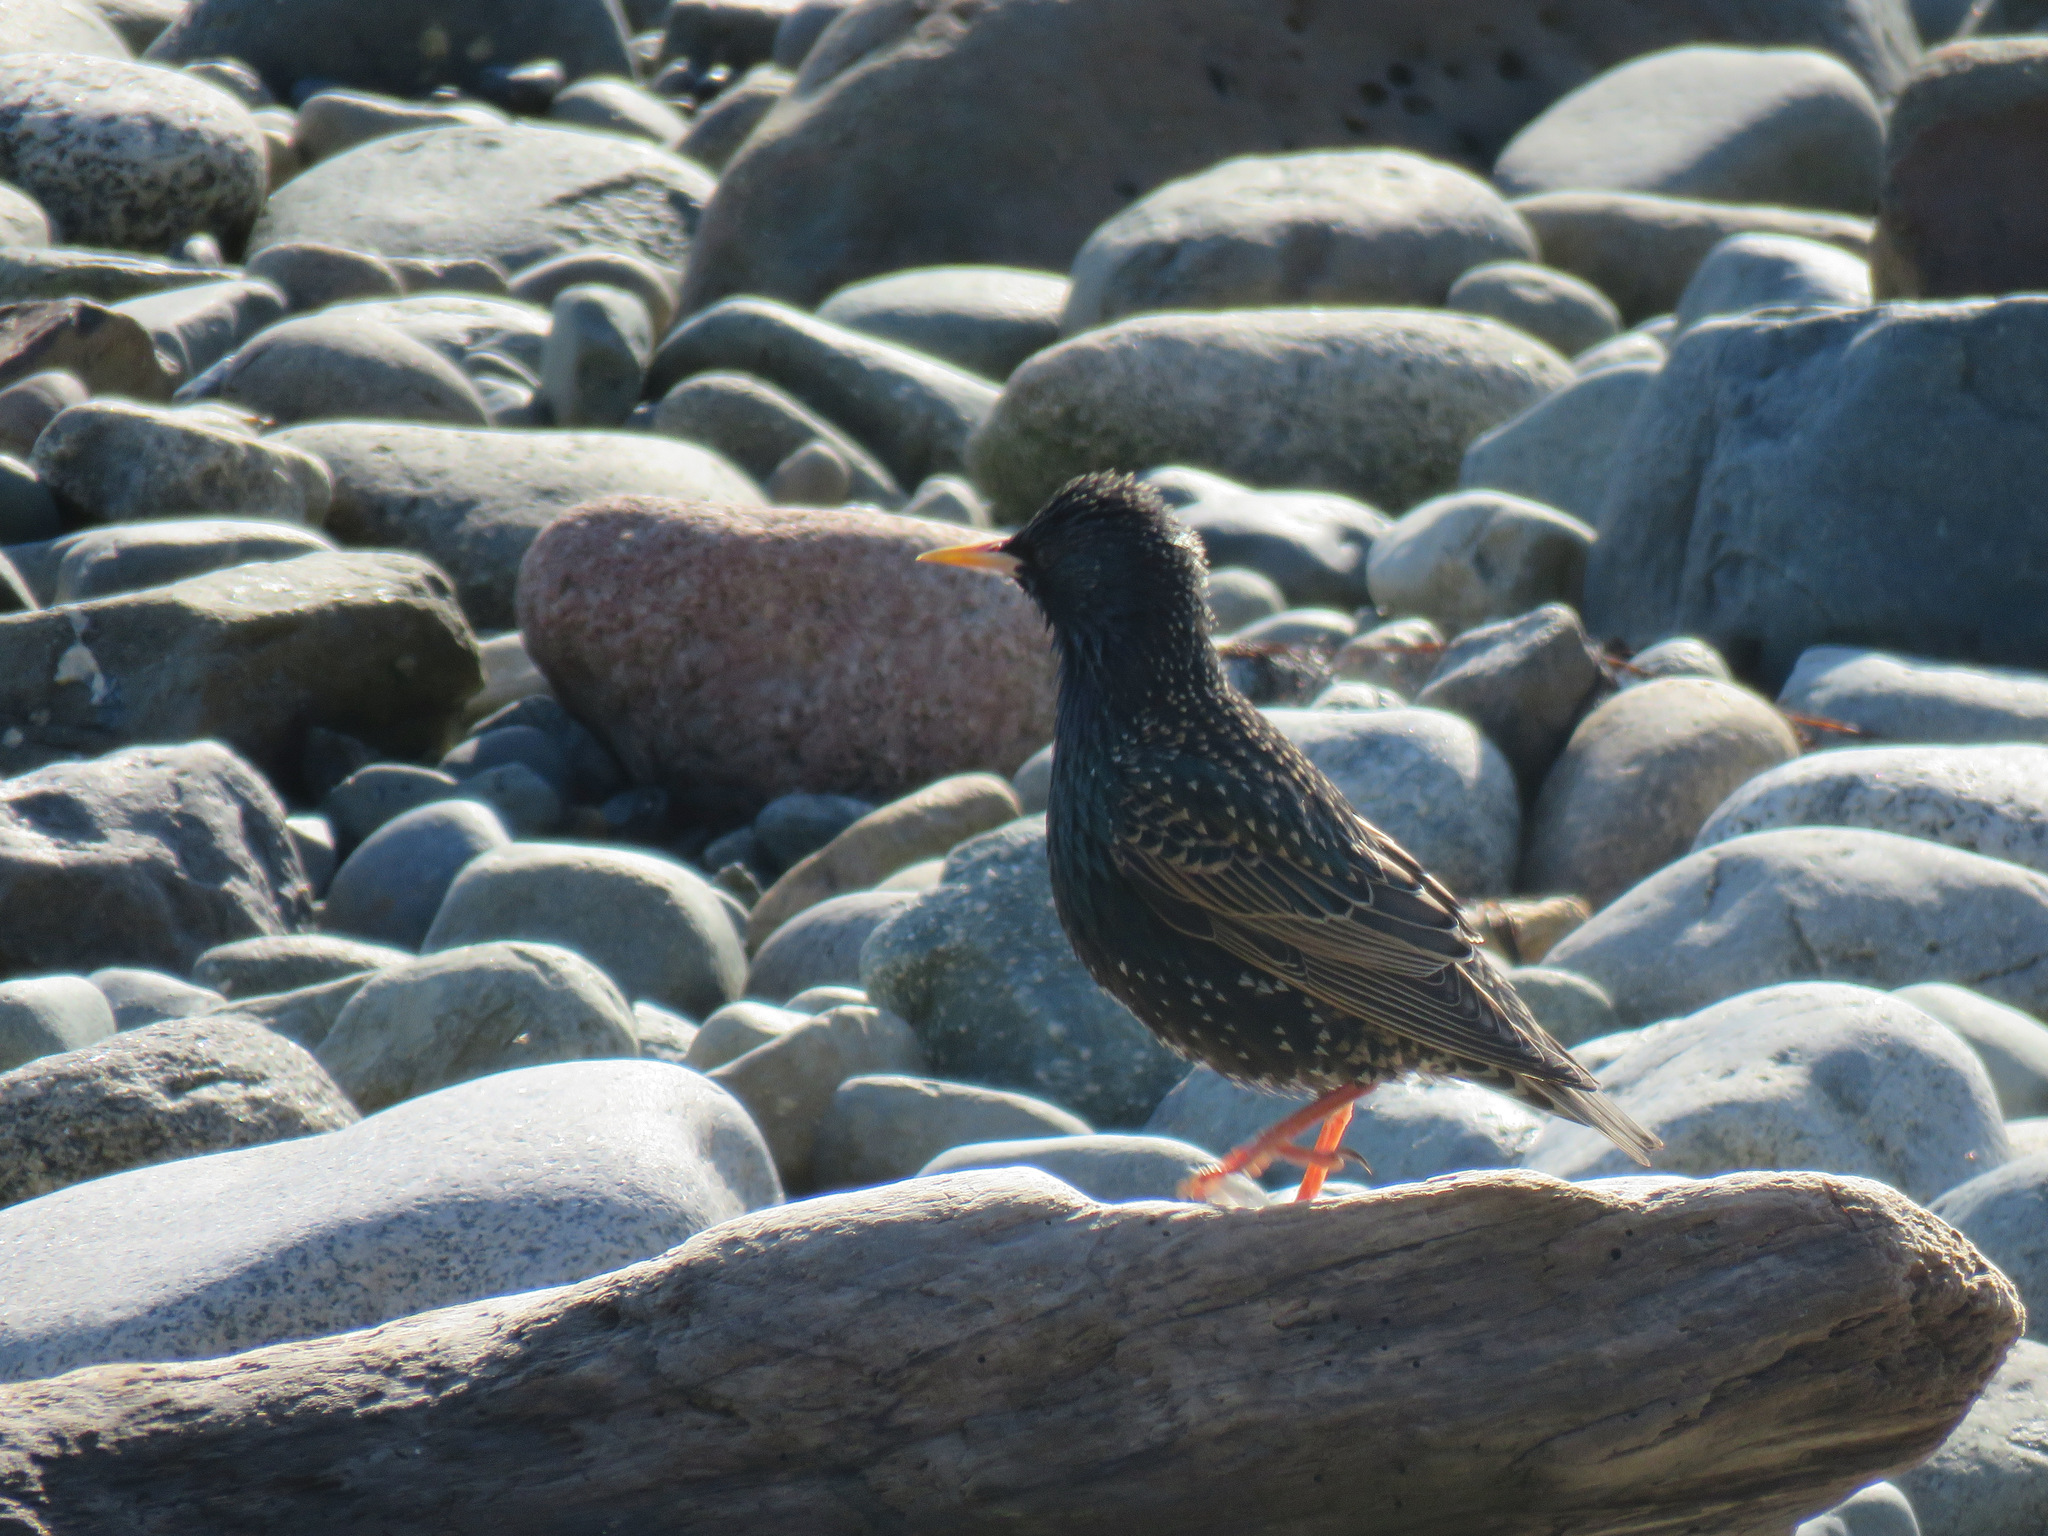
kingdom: Animalia
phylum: Chordata
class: Aves
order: Passeriformes
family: Sturnidae
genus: Sturnus
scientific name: Sturnus vulgaris
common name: Common starling
